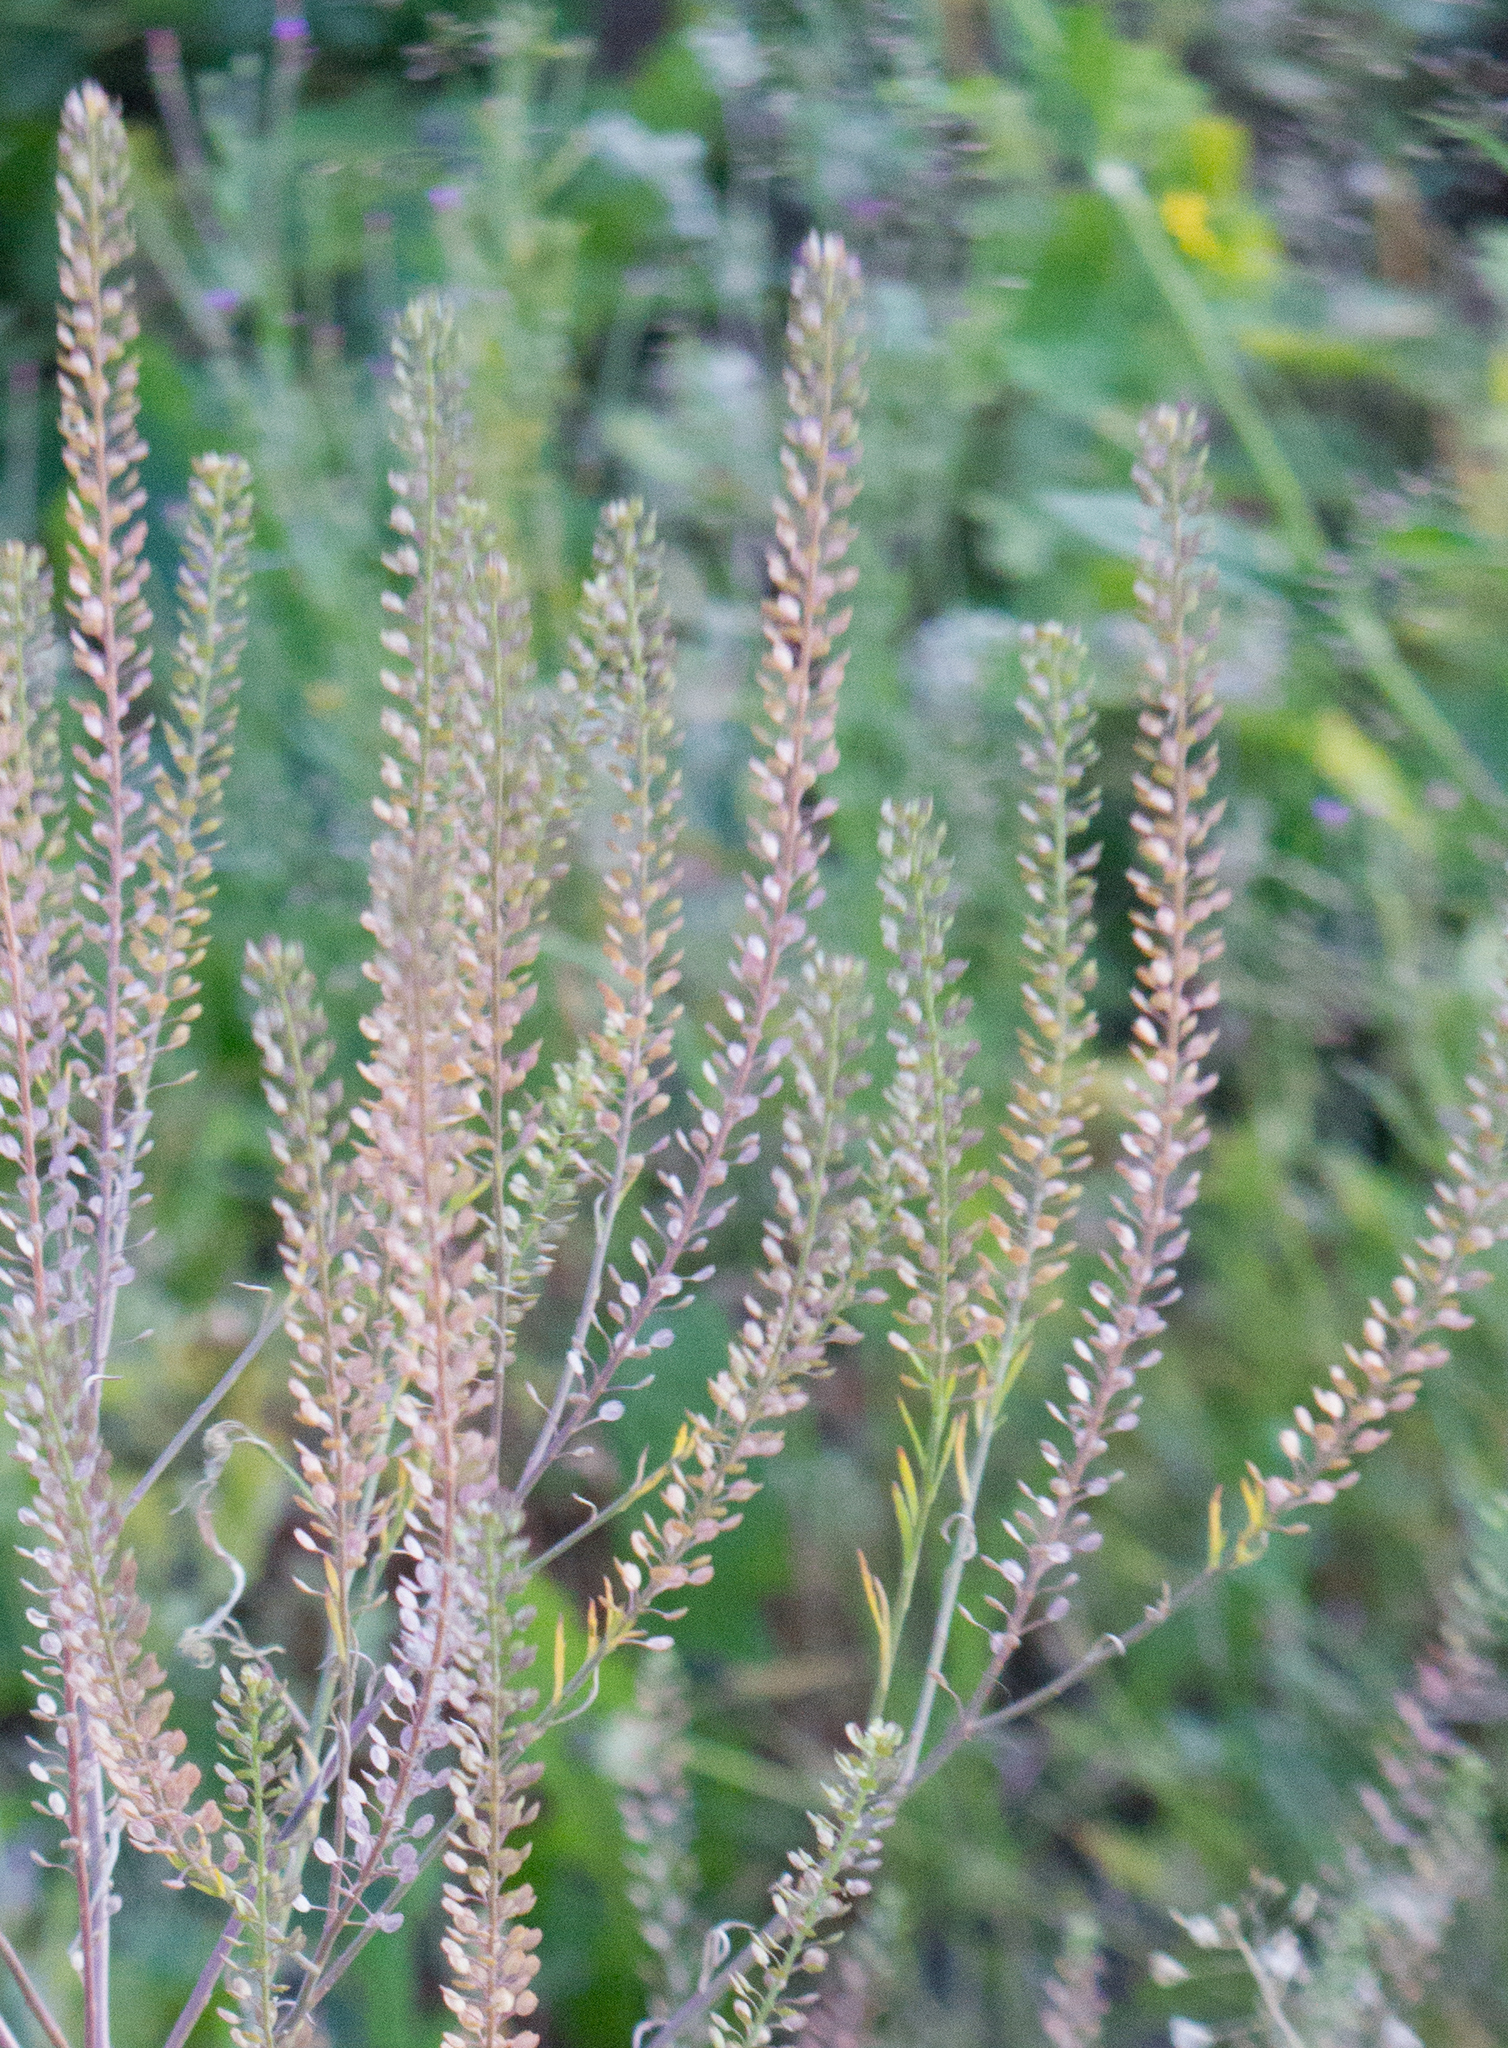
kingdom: Plantae
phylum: Tracheophyta
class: Magnoliopsida
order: Brassicales
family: Brassicaceae
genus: Lepidium
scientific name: Lepidium densiflorum
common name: Miner's pepperwort
